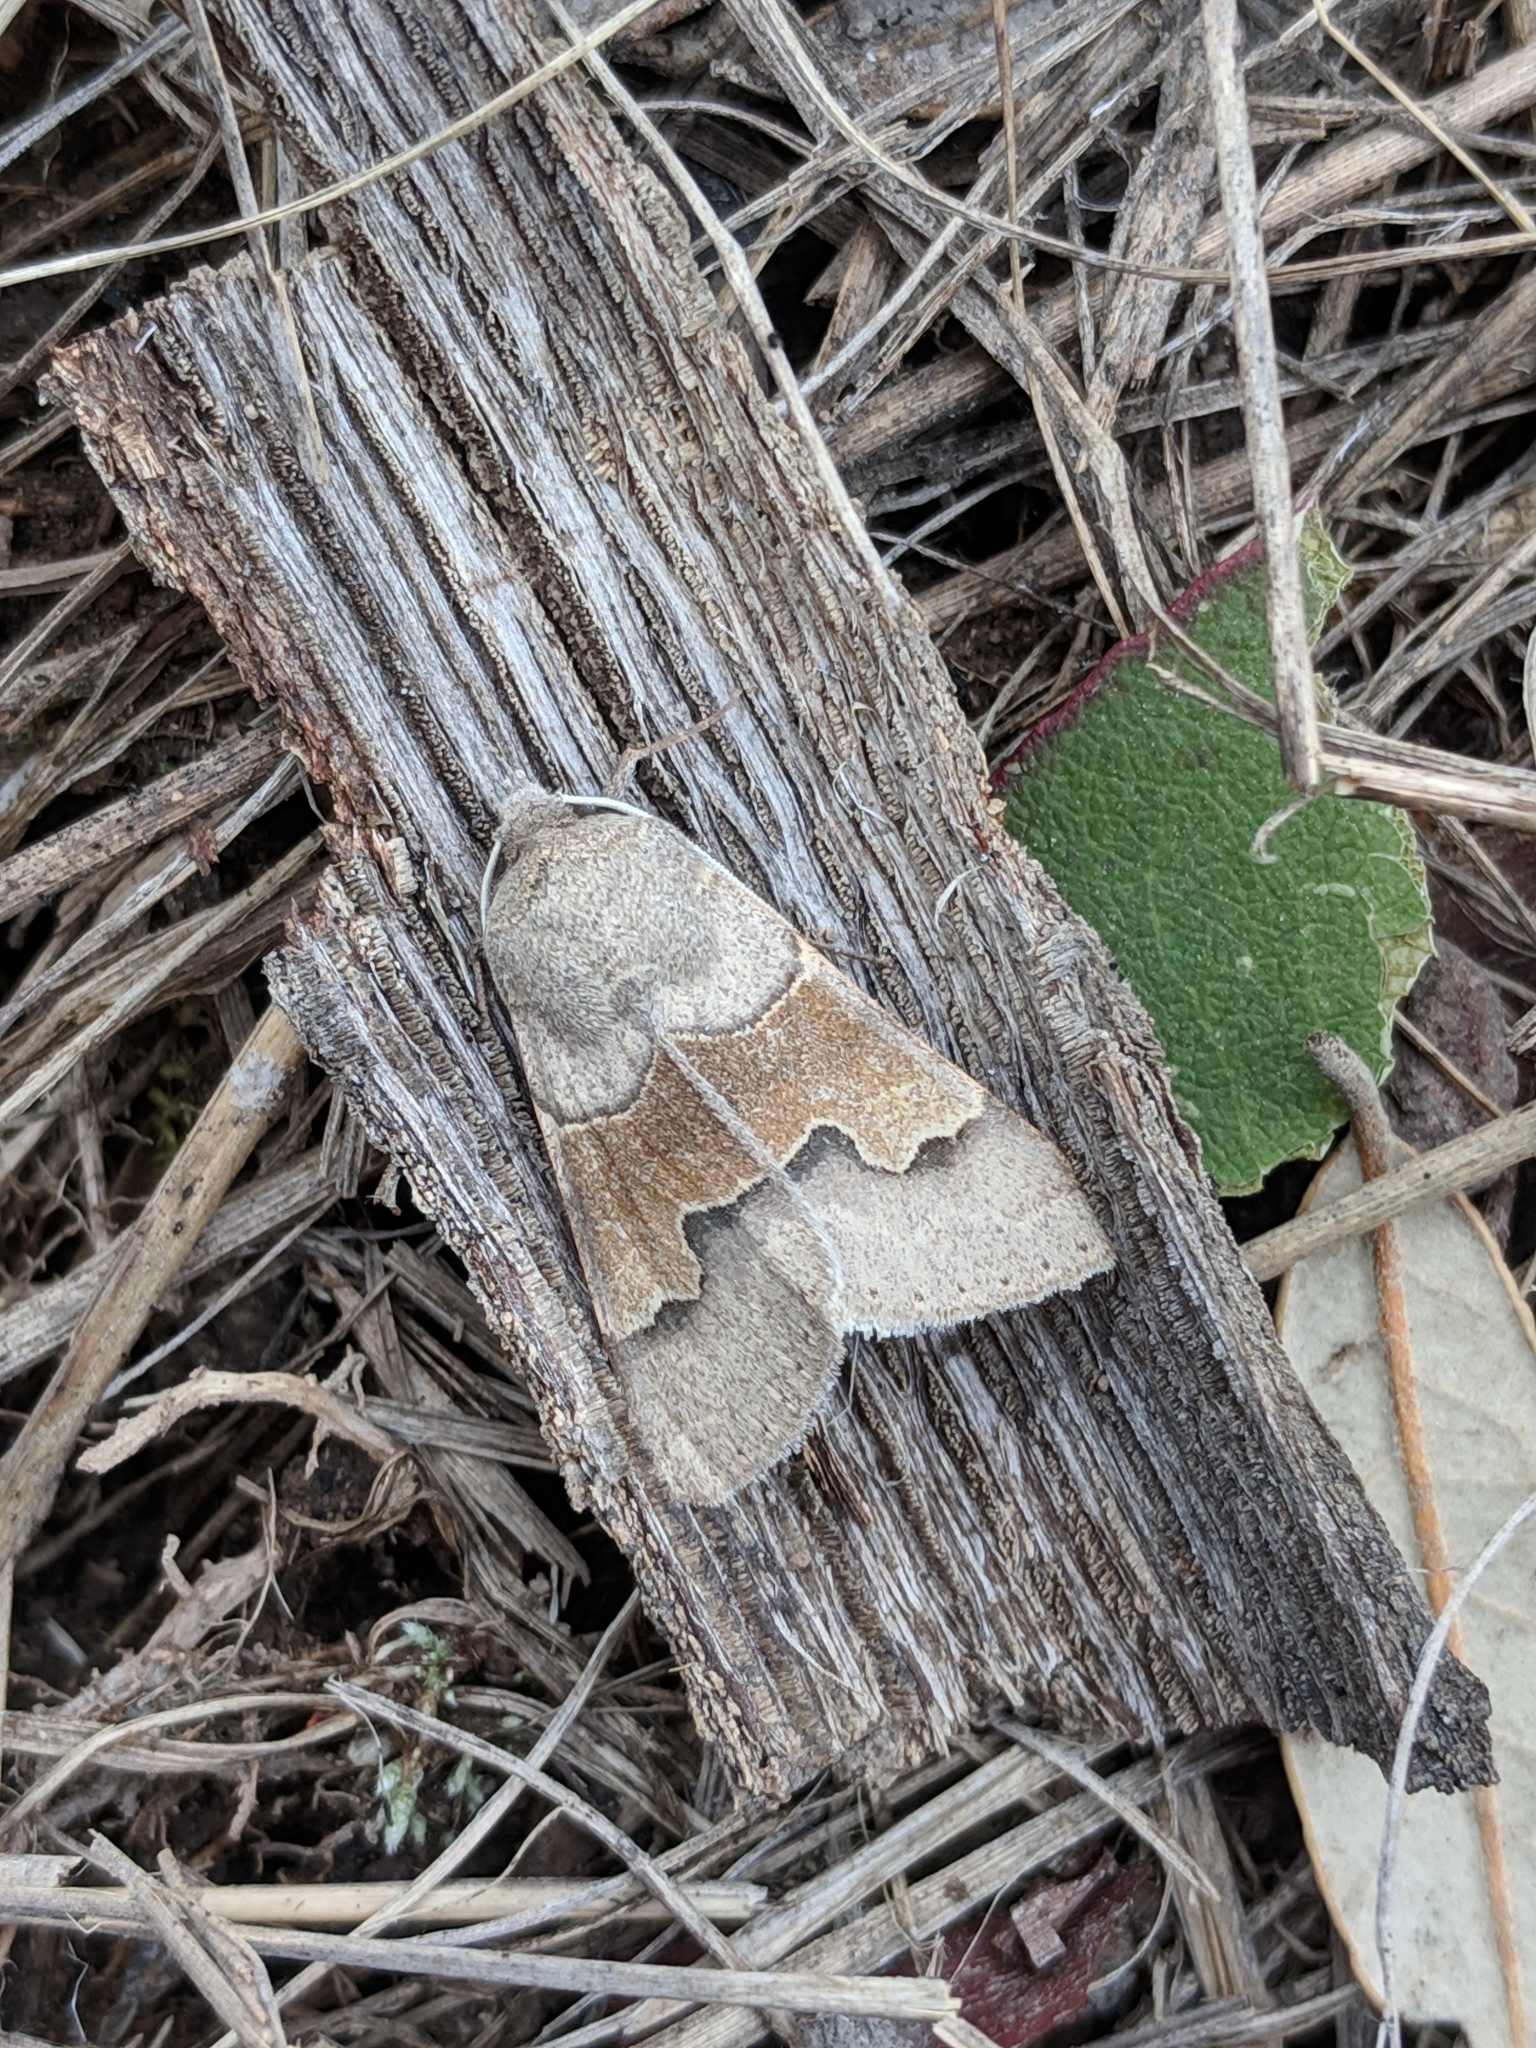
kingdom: Animalia
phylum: Arthropoda
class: Insecta
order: Lepidoptera
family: Erebidae
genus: Ulosyneda
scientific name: Ulosyneda valens
